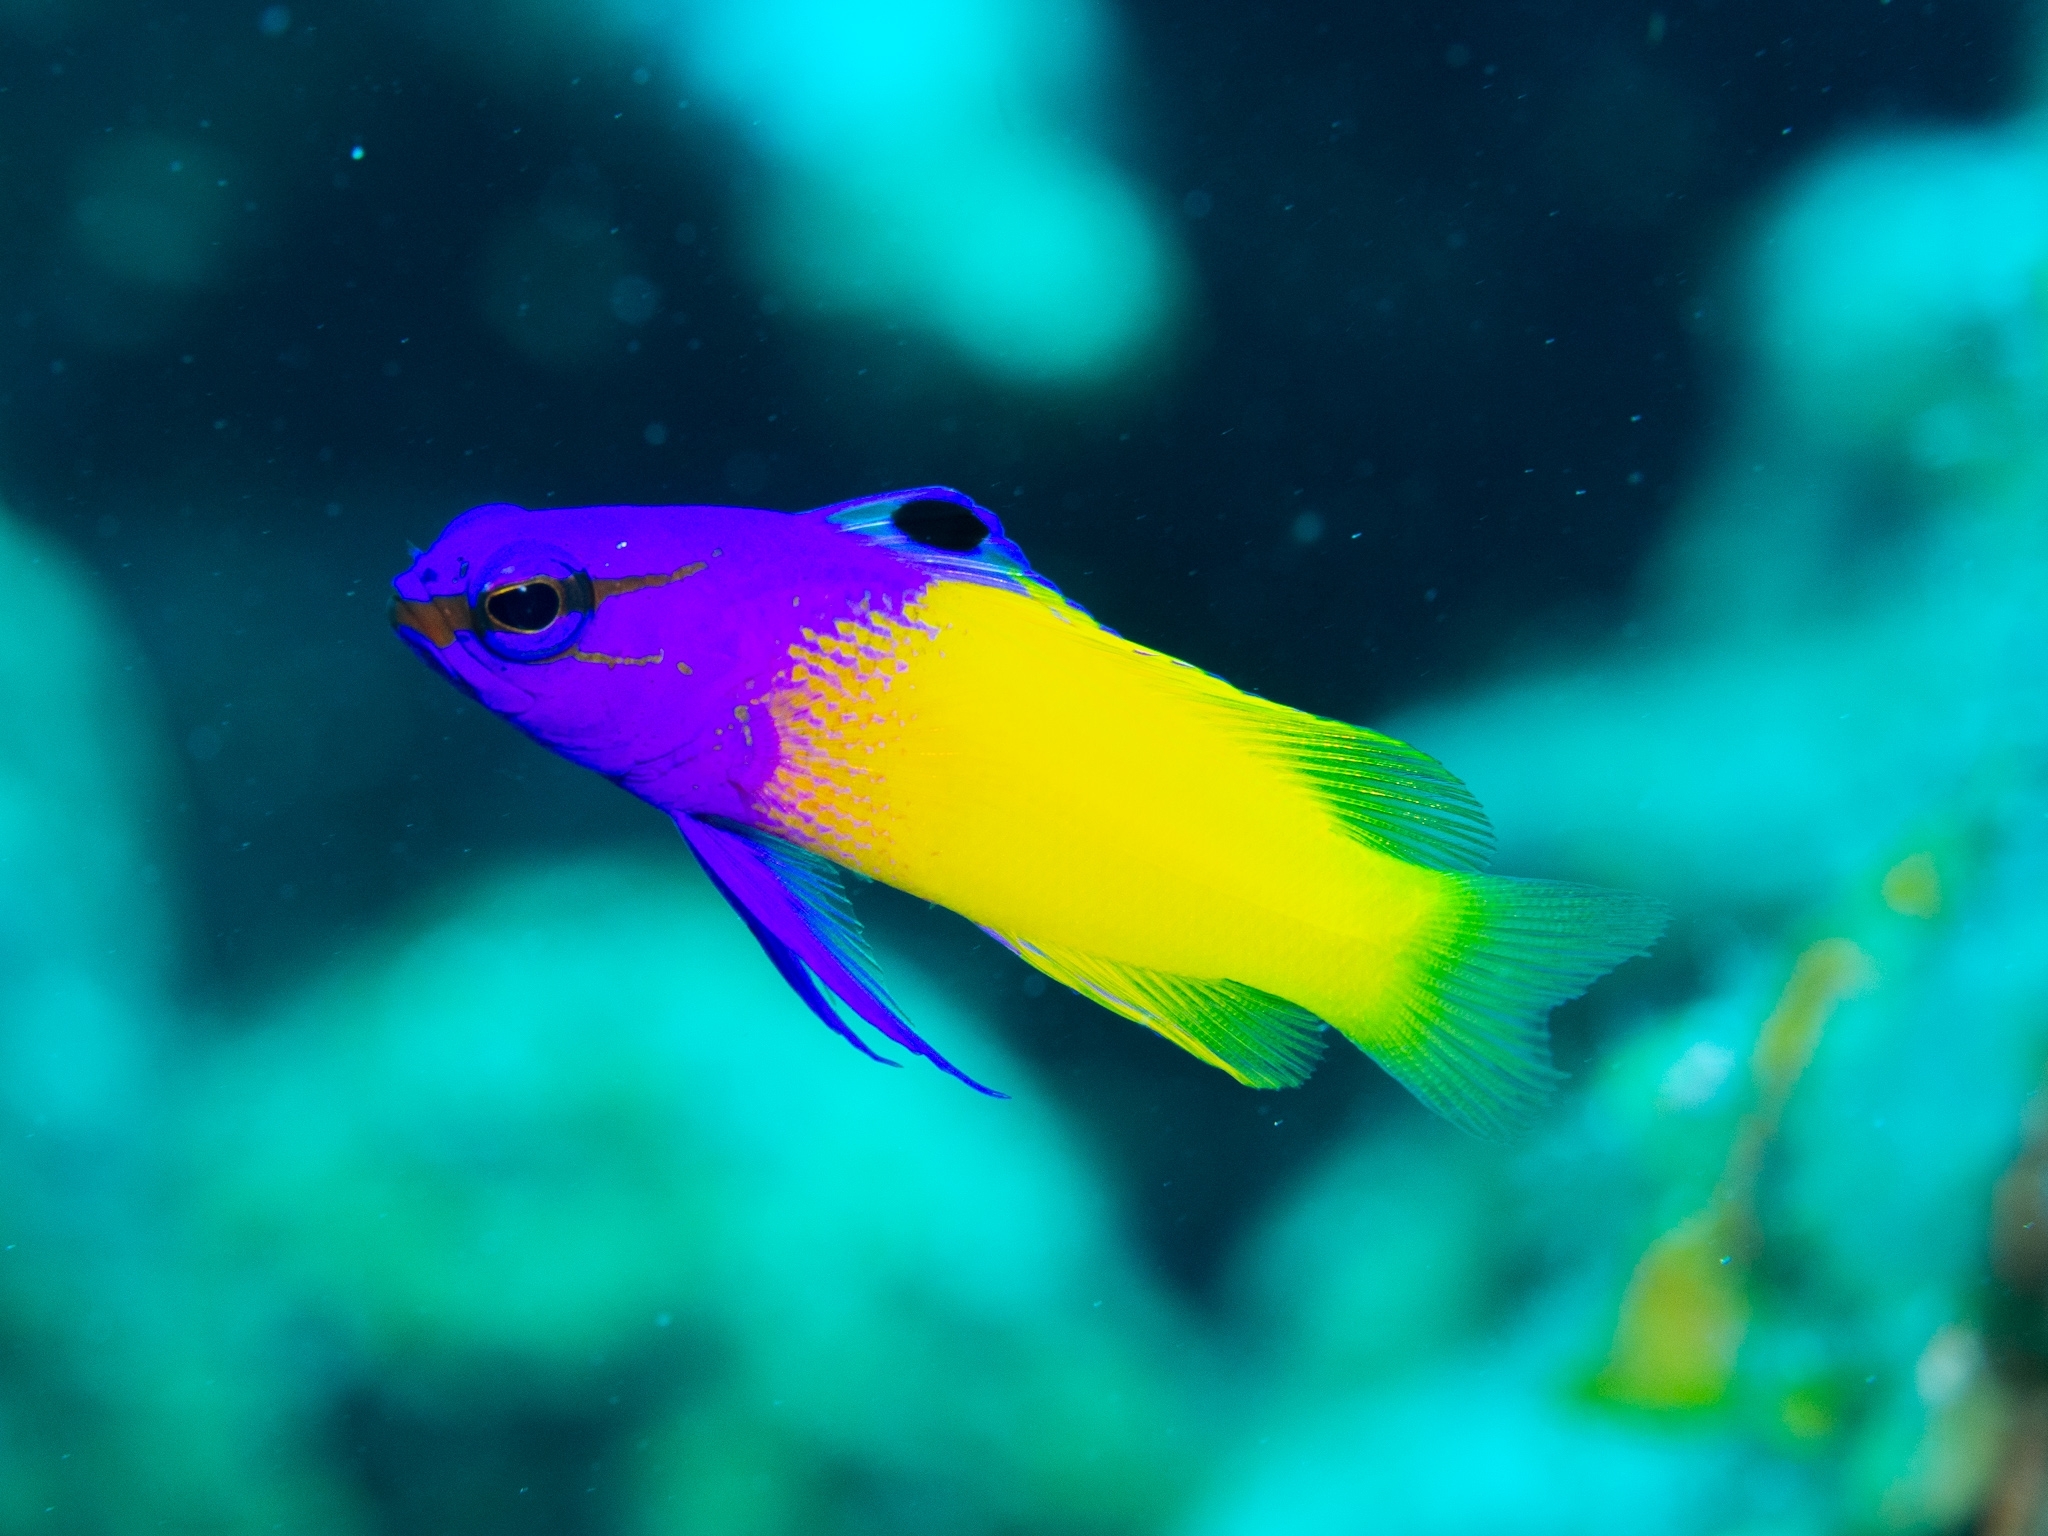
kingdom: Animalia
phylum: Chordata
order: Perciformes
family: Grammatidae
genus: Gramma
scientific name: Gramma loreto
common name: Fairy basslet
